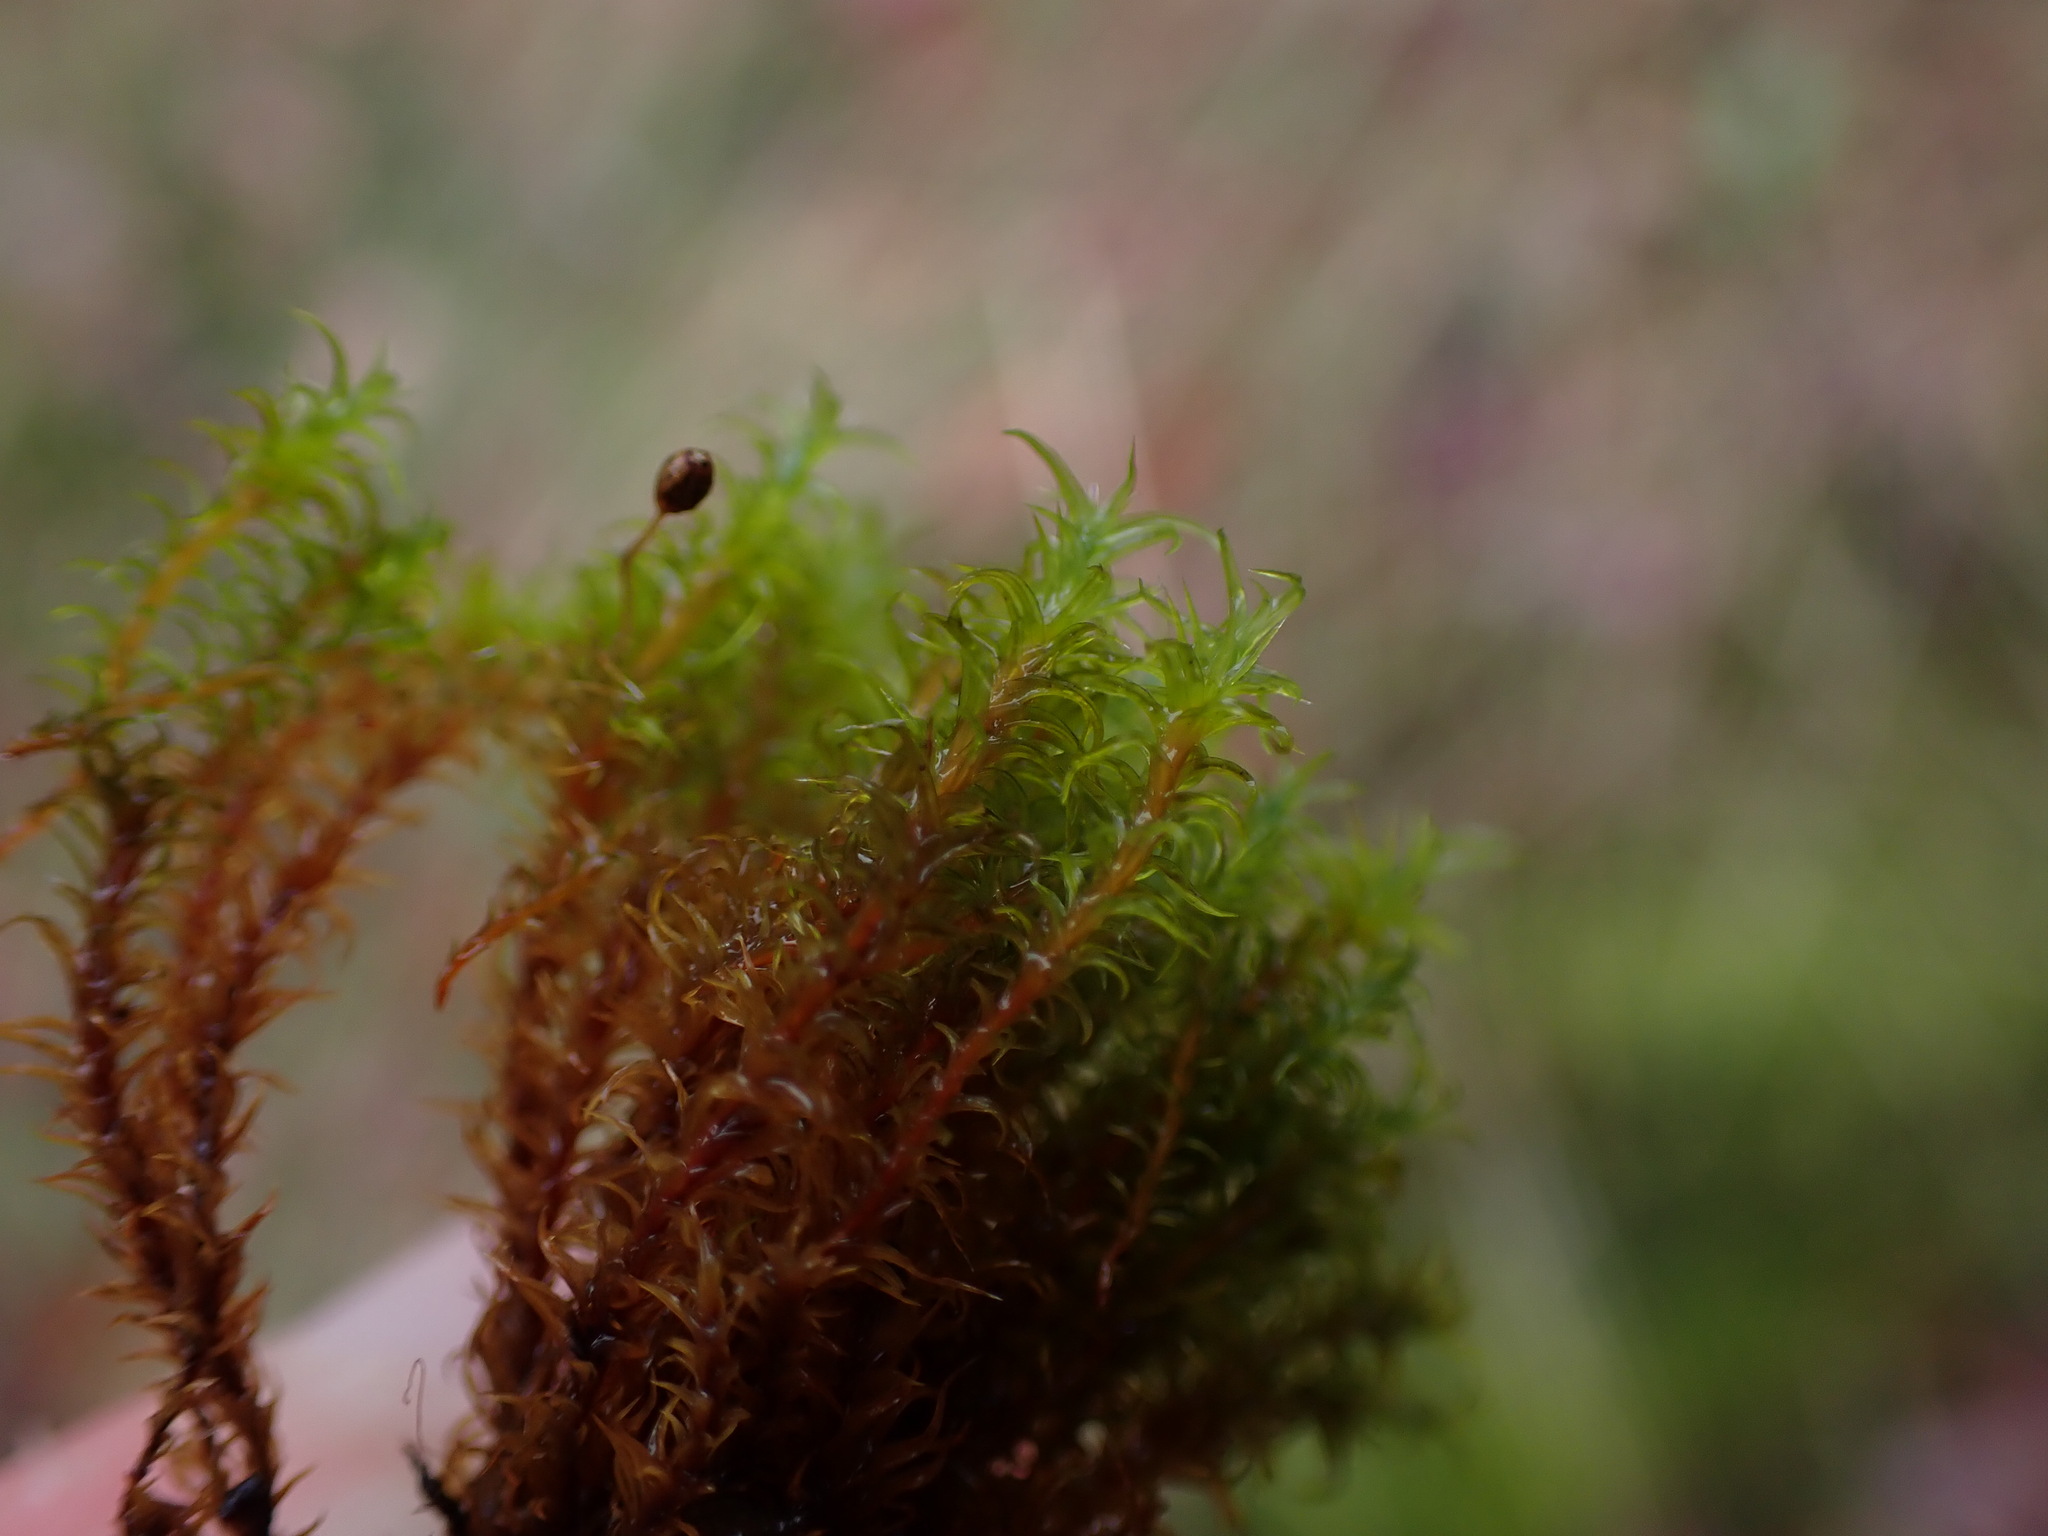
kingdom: Plantae
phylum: Bryophyta
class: Bryopsida
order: Grimmiales
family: Grimmiaceae
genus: Bucklandiella
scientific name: Bucklandiella macounii
